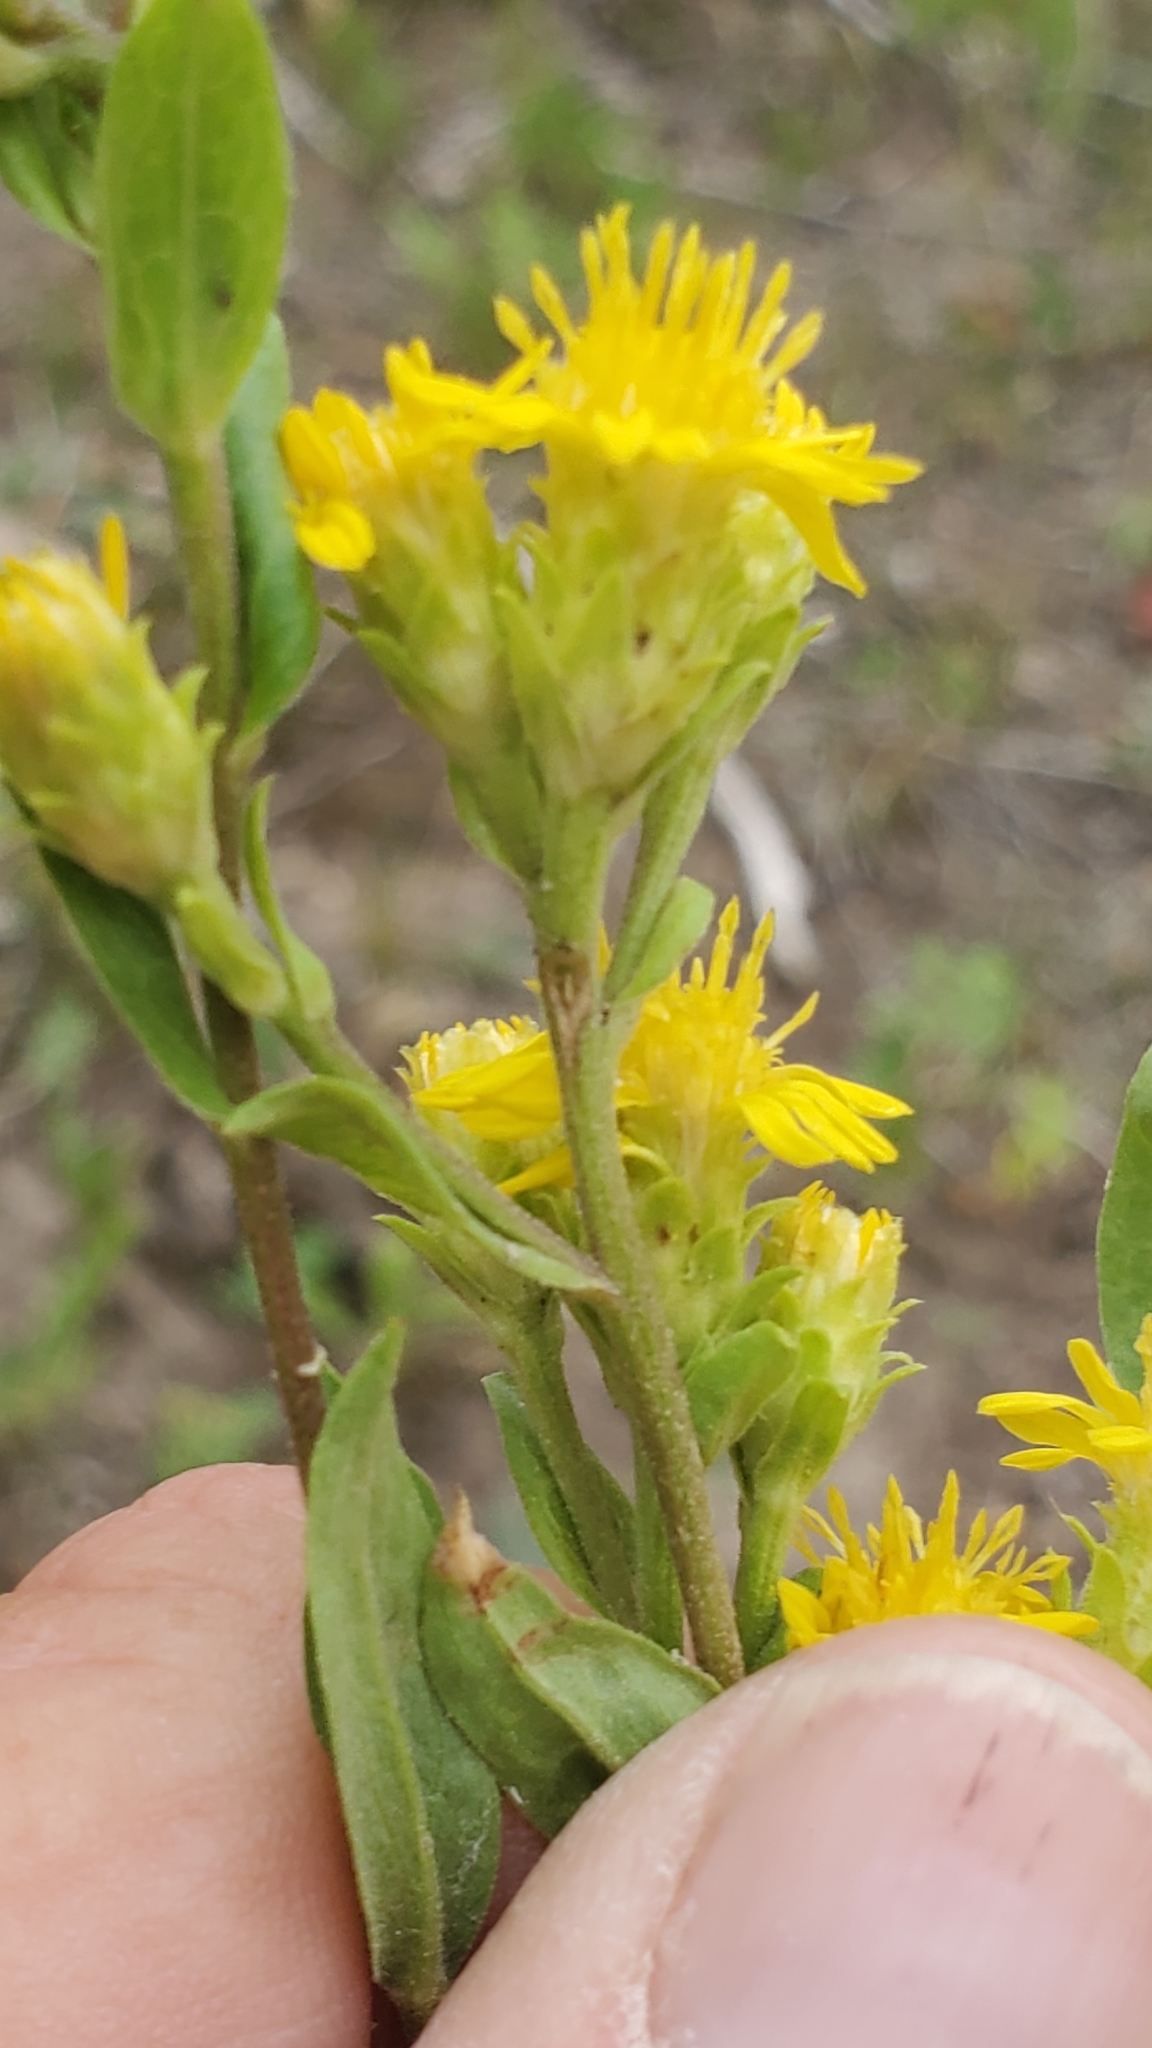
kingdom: Plantae
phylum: Tracheophyta
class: Magnoliopsida
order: Asterales
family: Asteraceae
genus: Oreochrysum
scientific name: Oreochrysum parryi
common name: Parry's goldenweed
